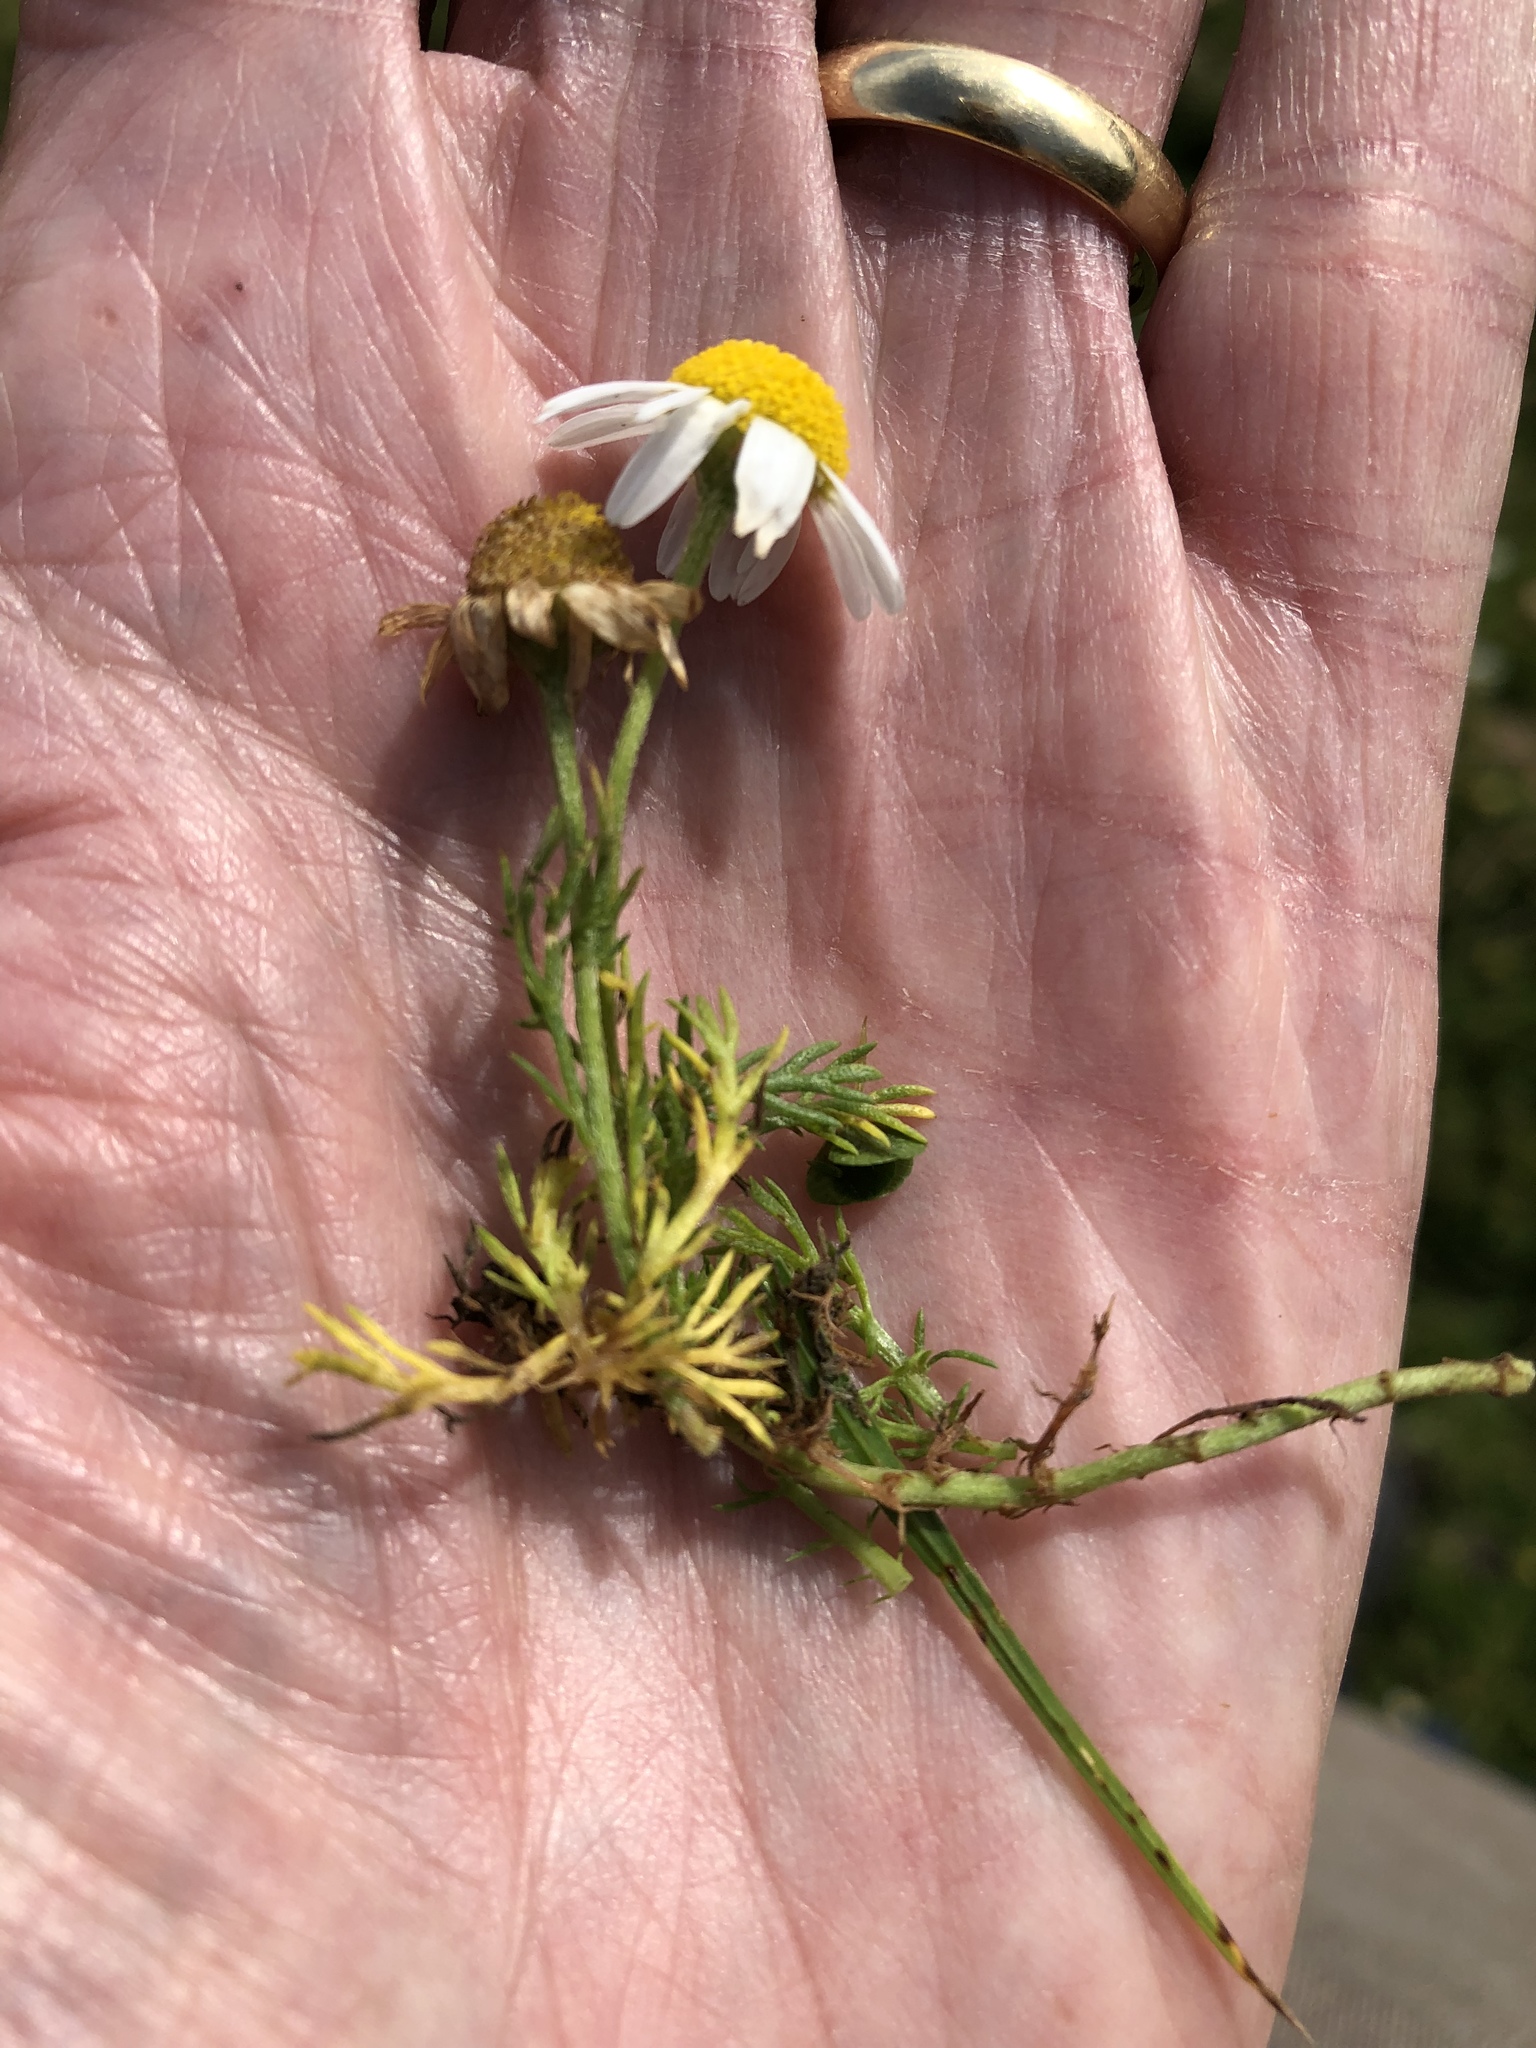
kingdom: Plantae
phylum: Tracheophyta
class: Magnoliopsida
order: Asterales
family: Asteraceae
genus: Matricaria
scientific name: Matricaria chamomilla
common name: Scented mayweed
